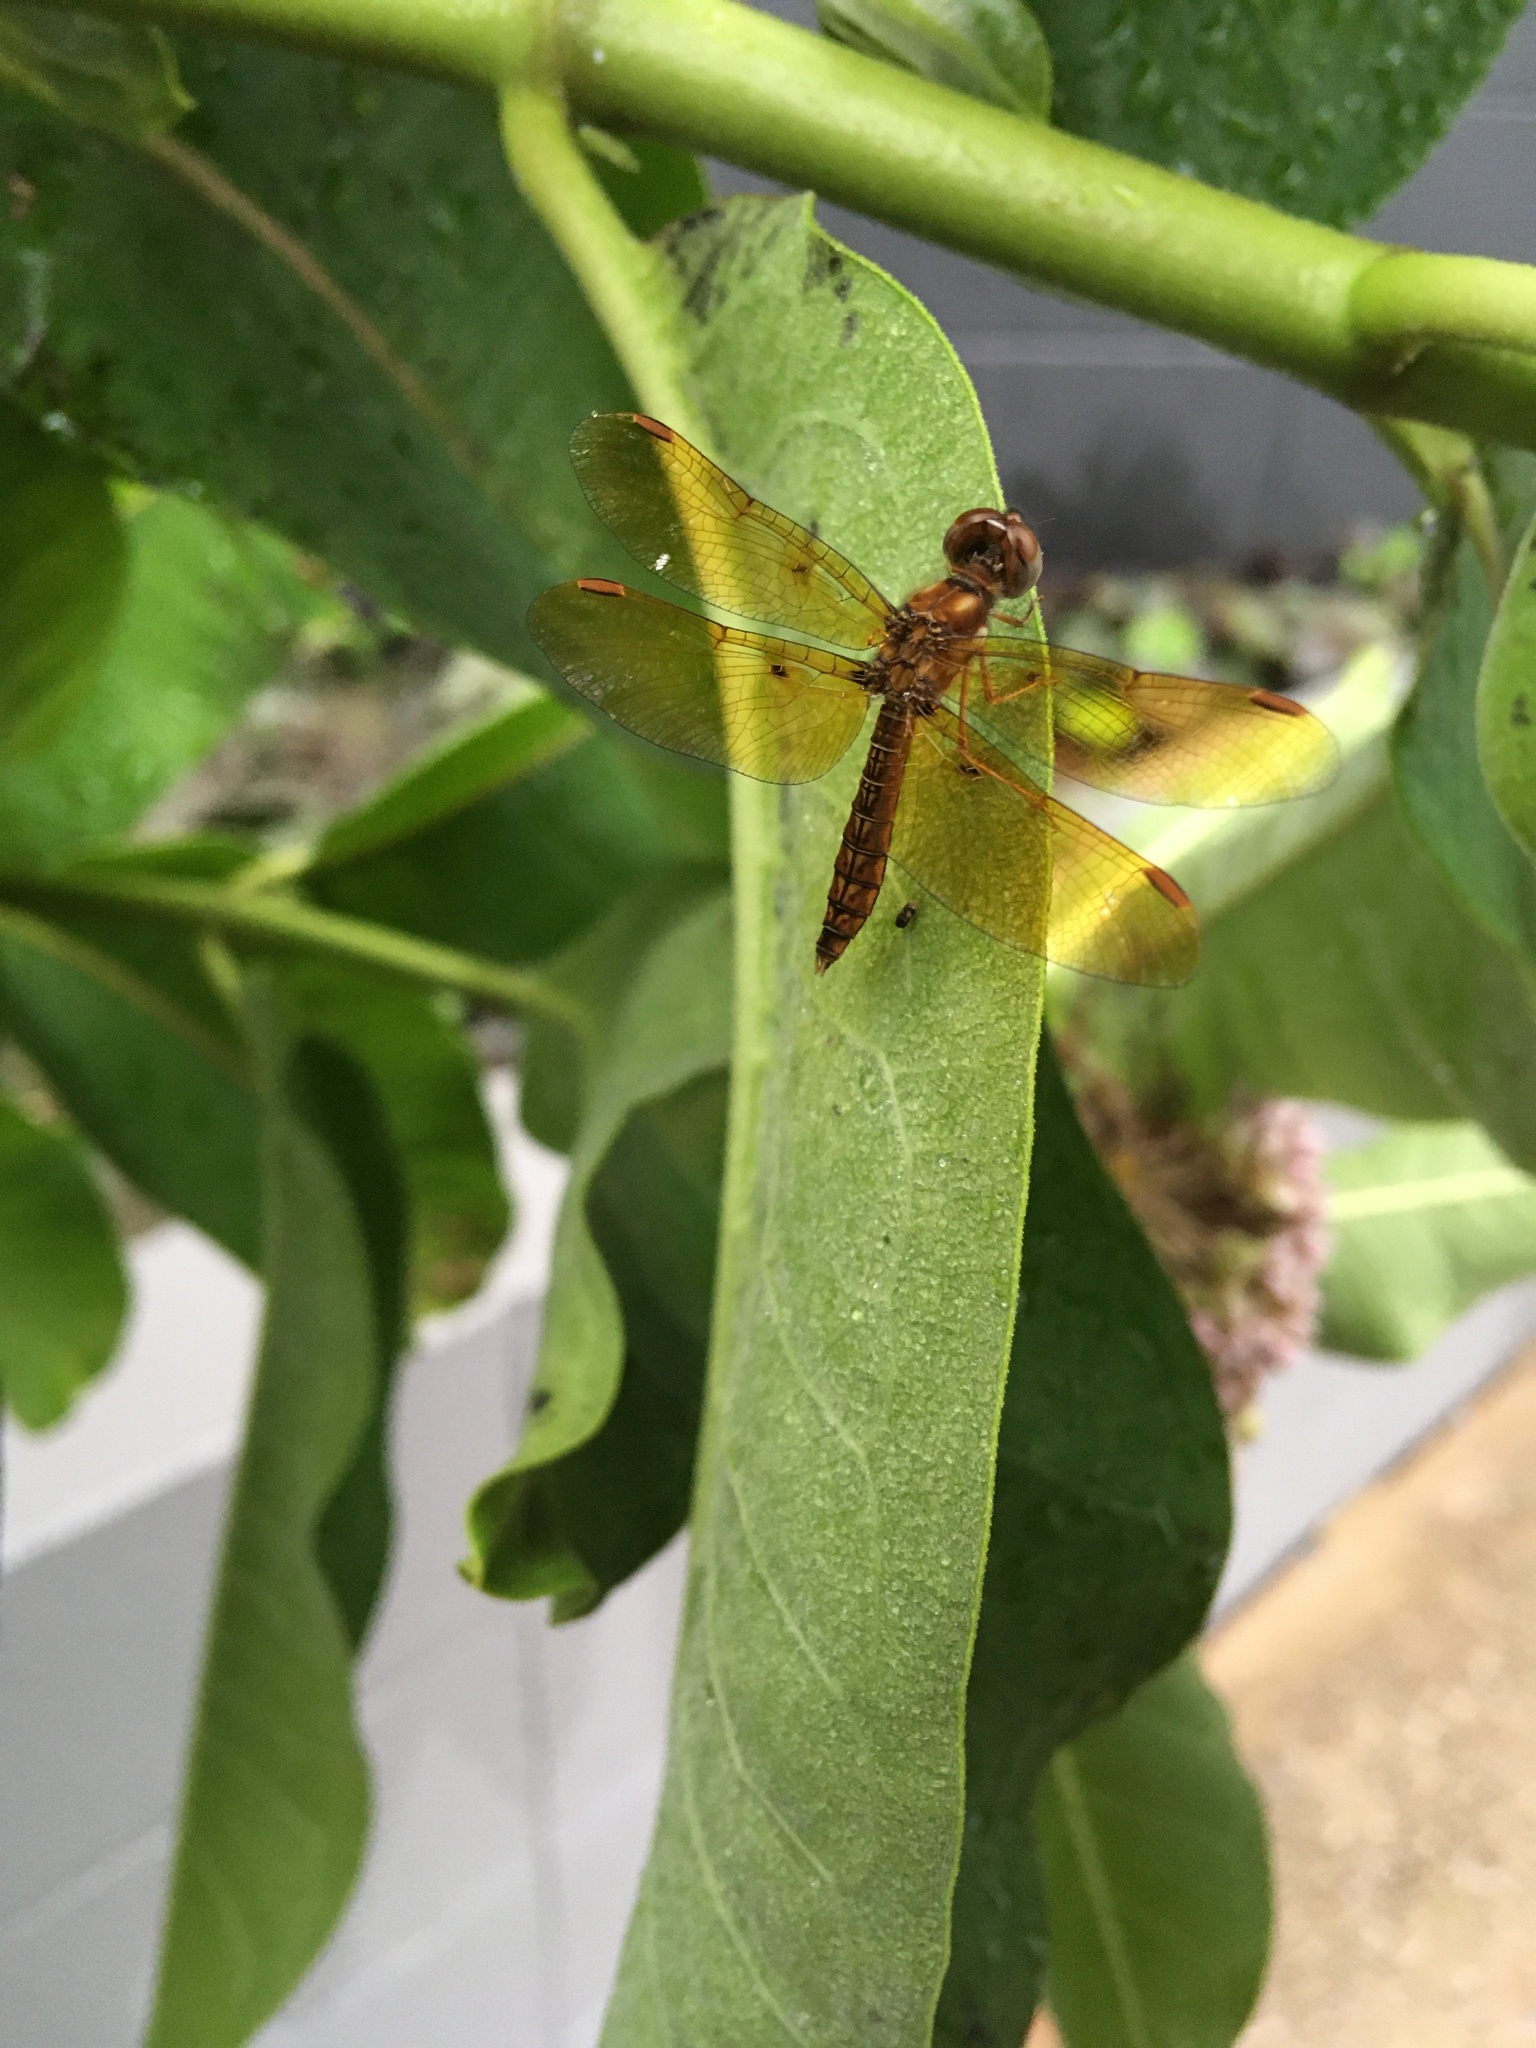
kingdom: Animalia
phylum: Arthropoda
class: Insecta
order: Odonata
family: Libellulidae
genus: Perithemis
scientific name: Perithemis tenera
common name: Eastern amberwing
